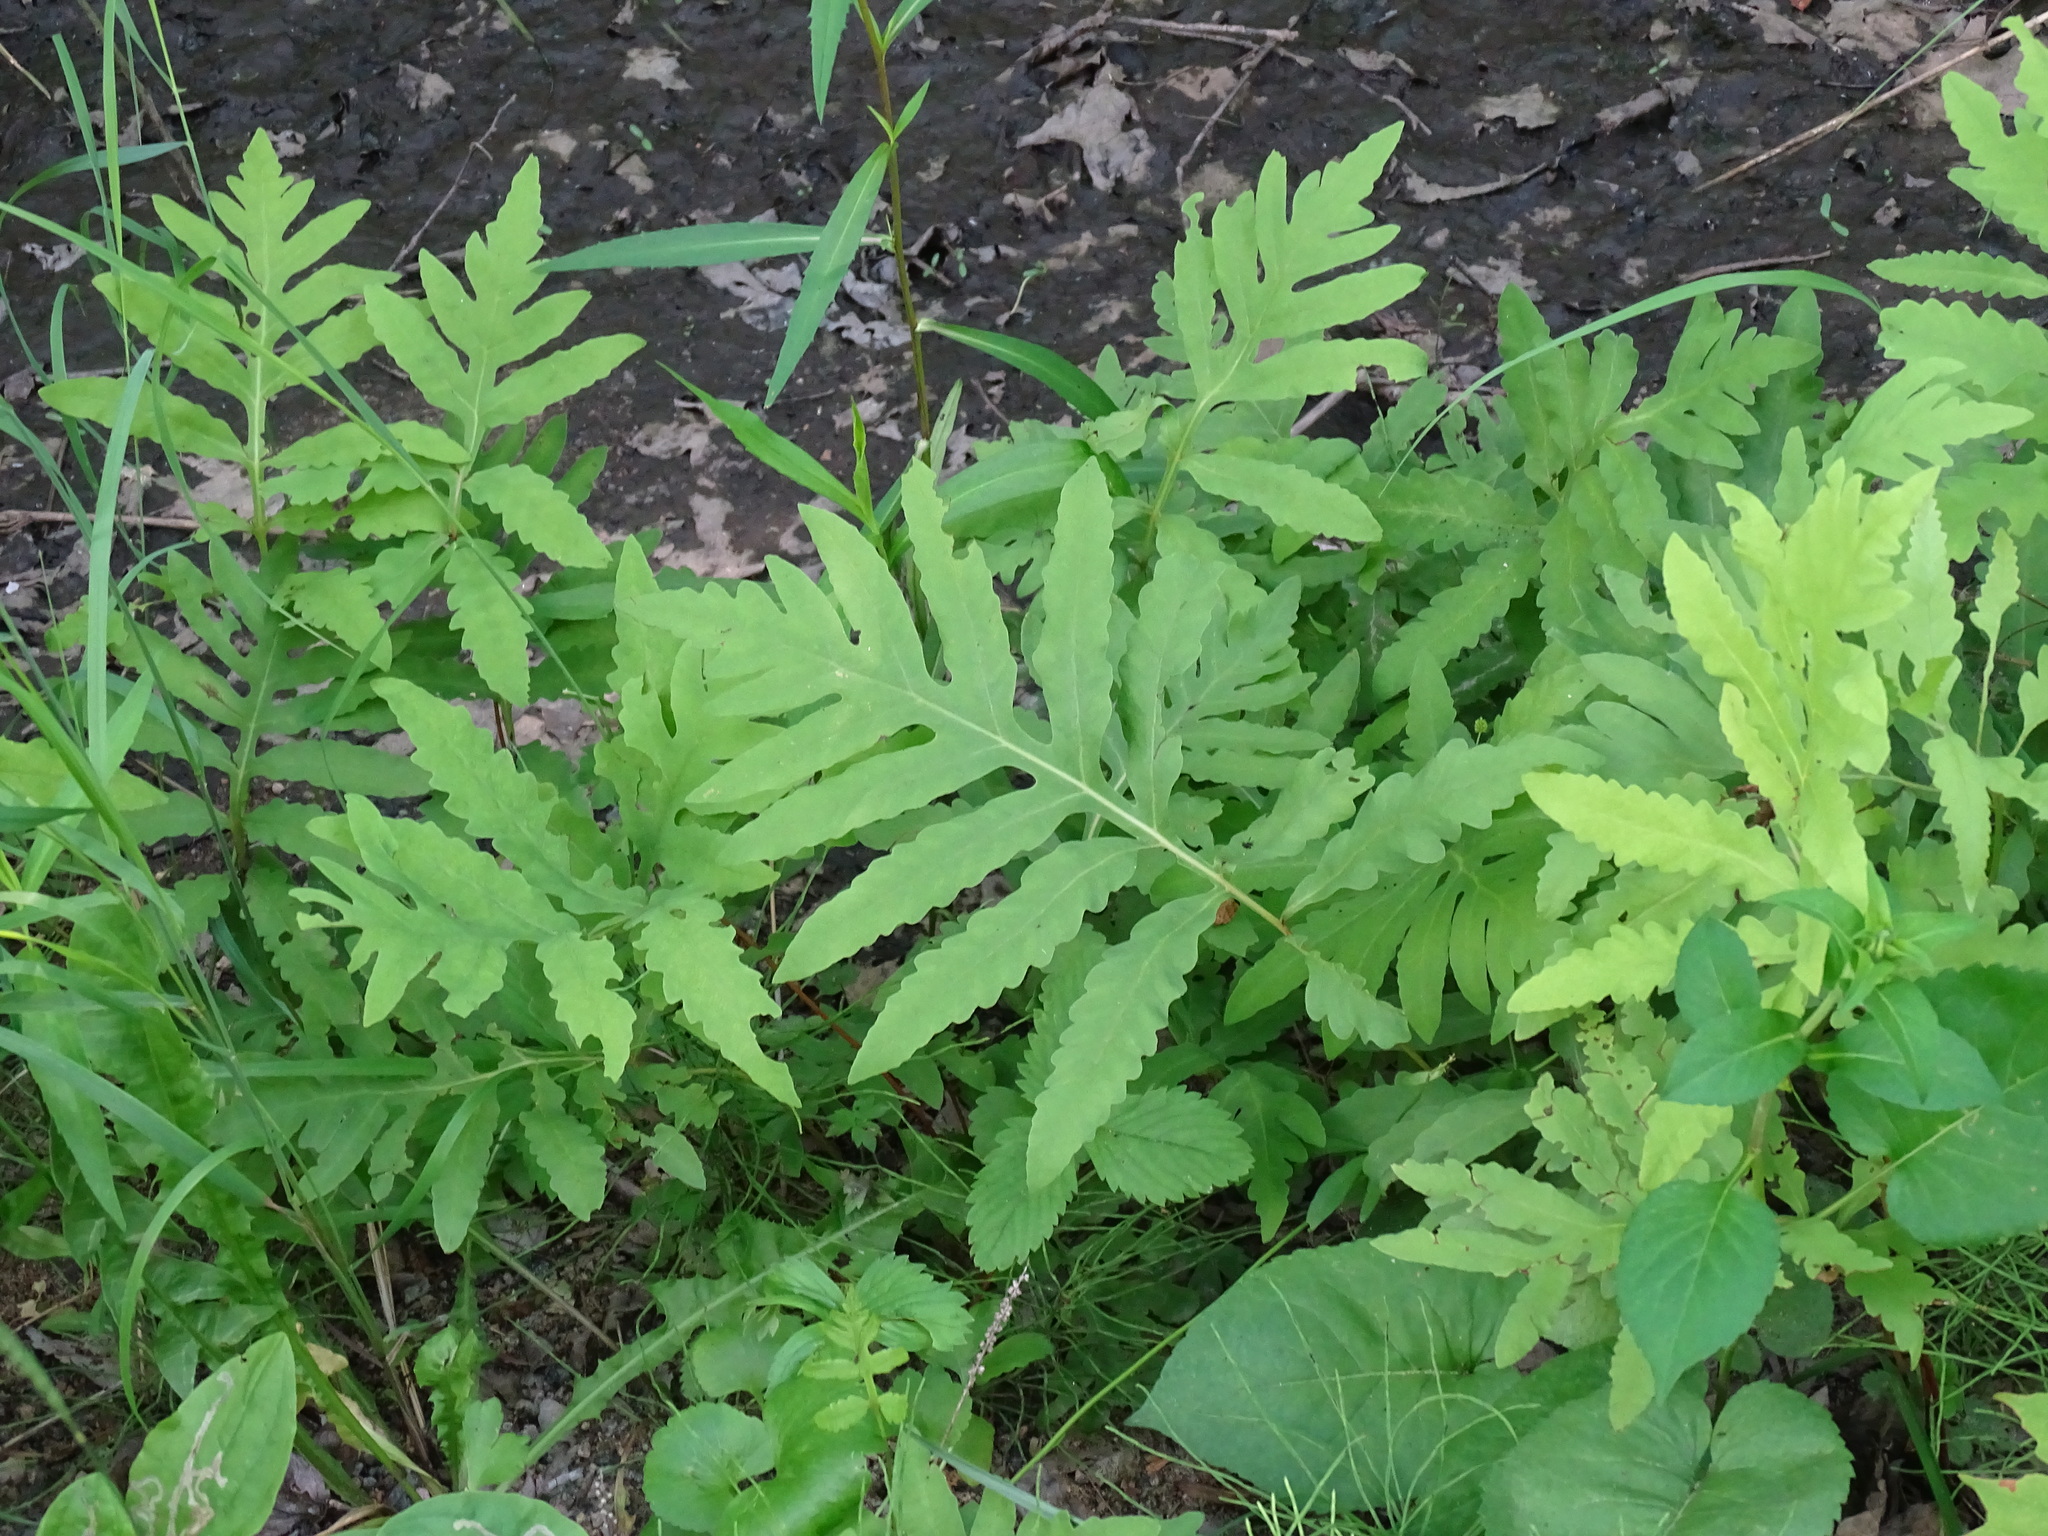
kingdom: Plantae
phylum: Tracheophyta
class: Polypodiopsida
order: Polypodiales
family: Onocleaceae
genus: Onoclea
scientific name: Onoclea sensibilis
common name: Sensitive fern
